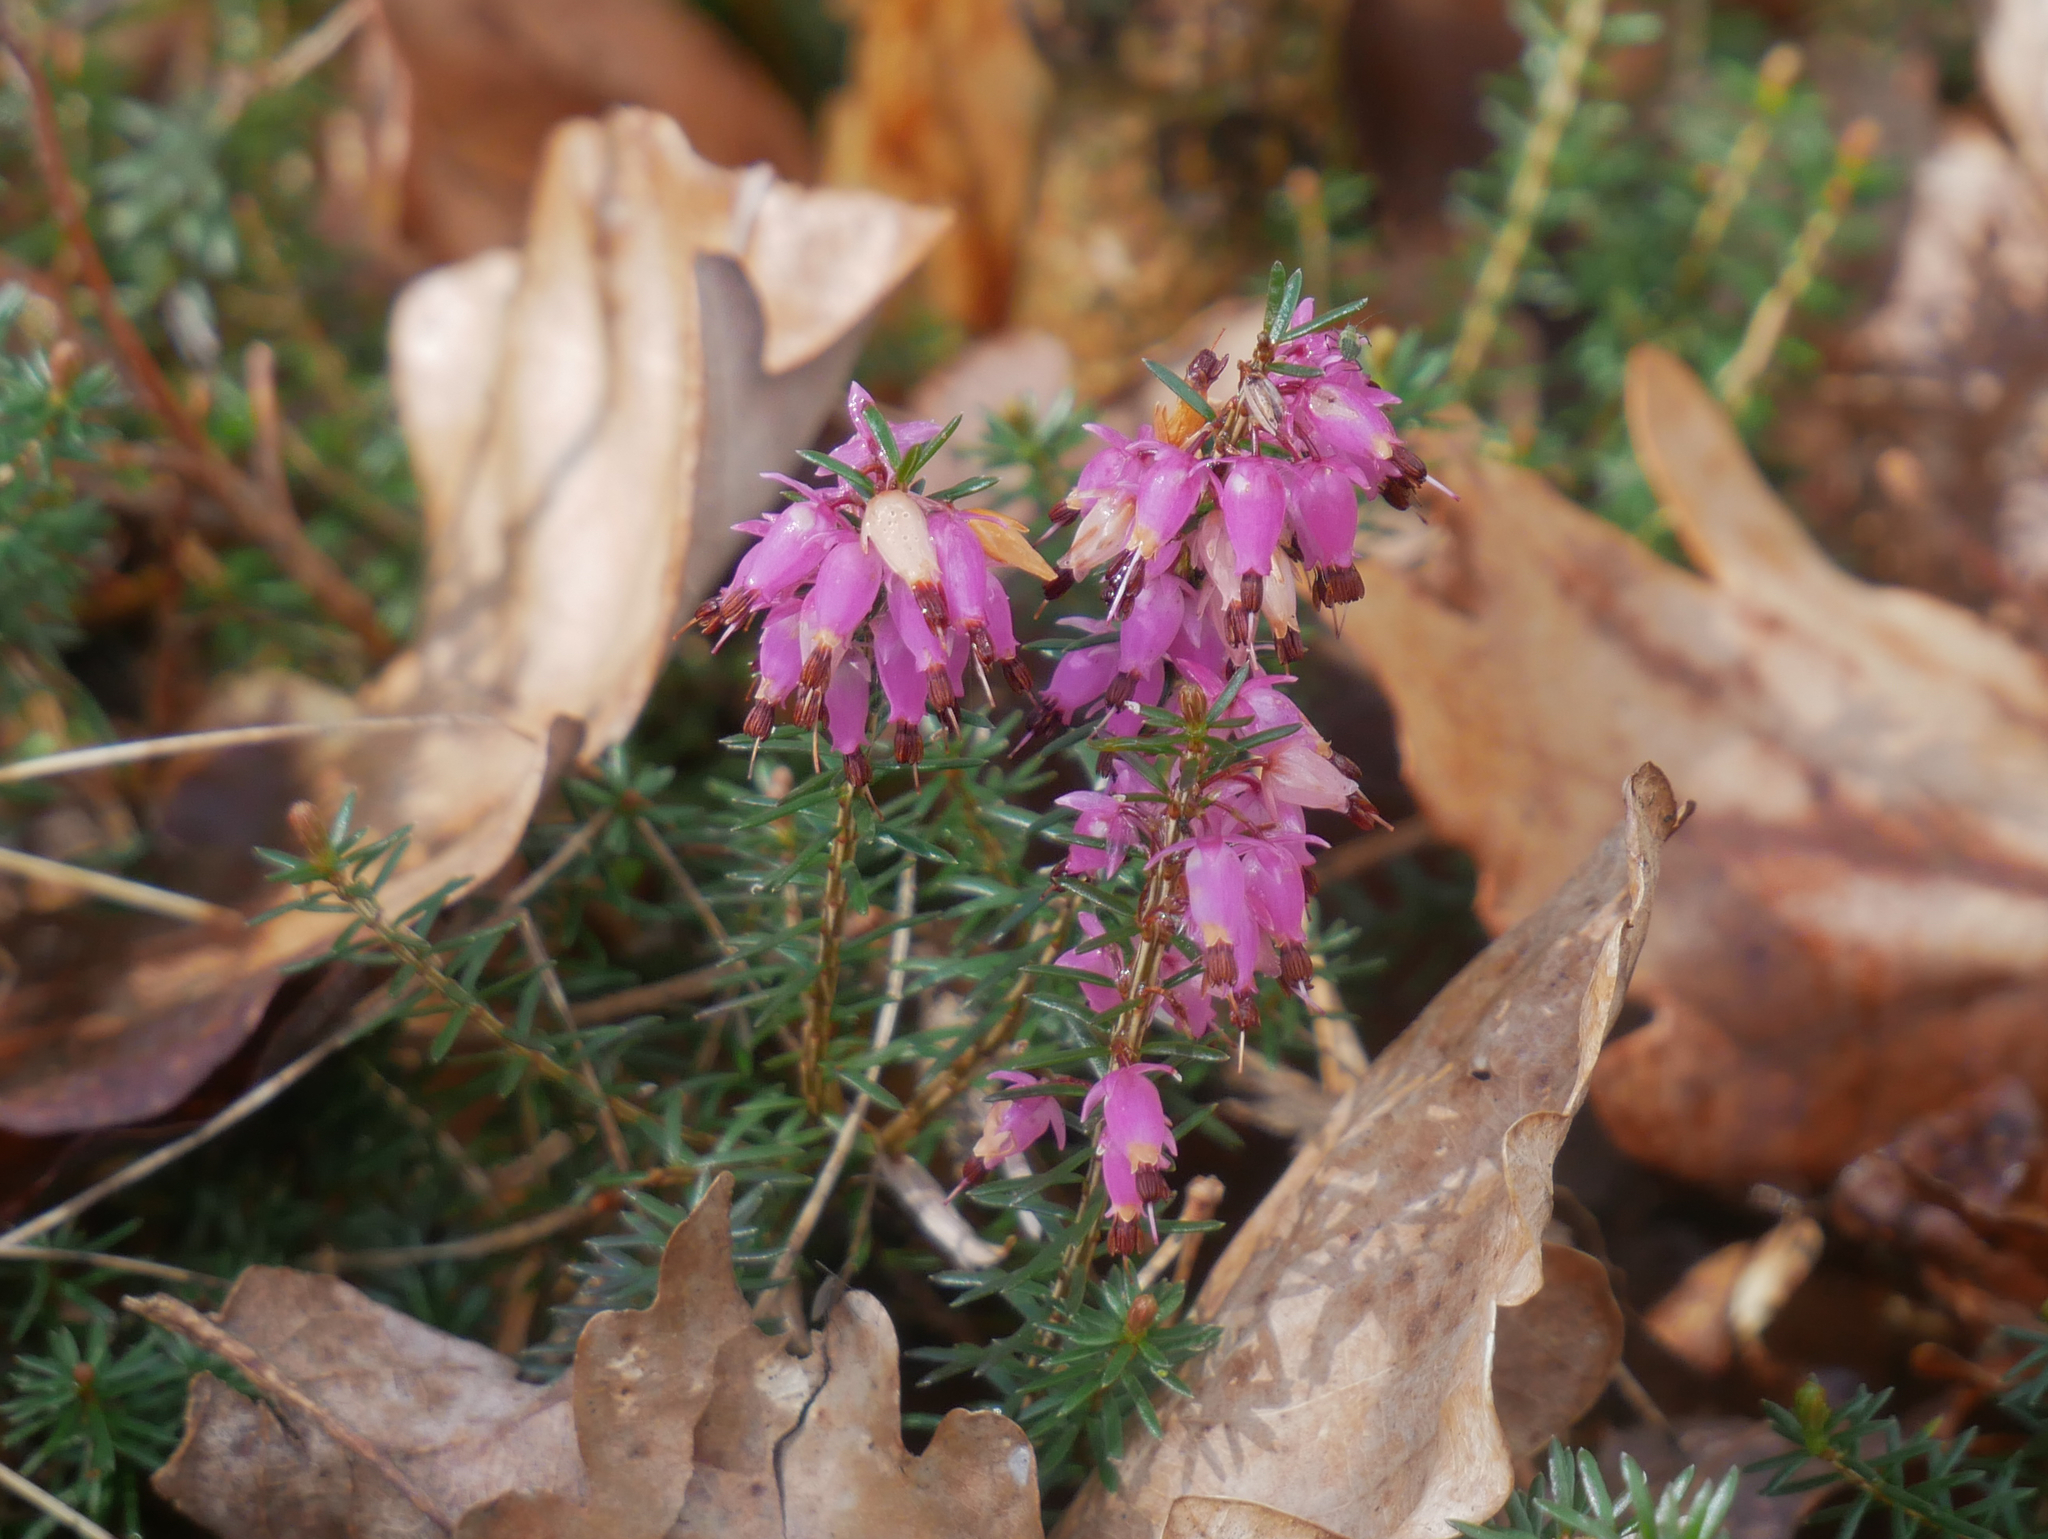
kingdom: Plantae
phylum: Tracheophyta
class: Magnoliopsida
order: Ericales
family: Ericaceae
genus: Erica
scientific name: Erica carnea
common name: Winter heath
